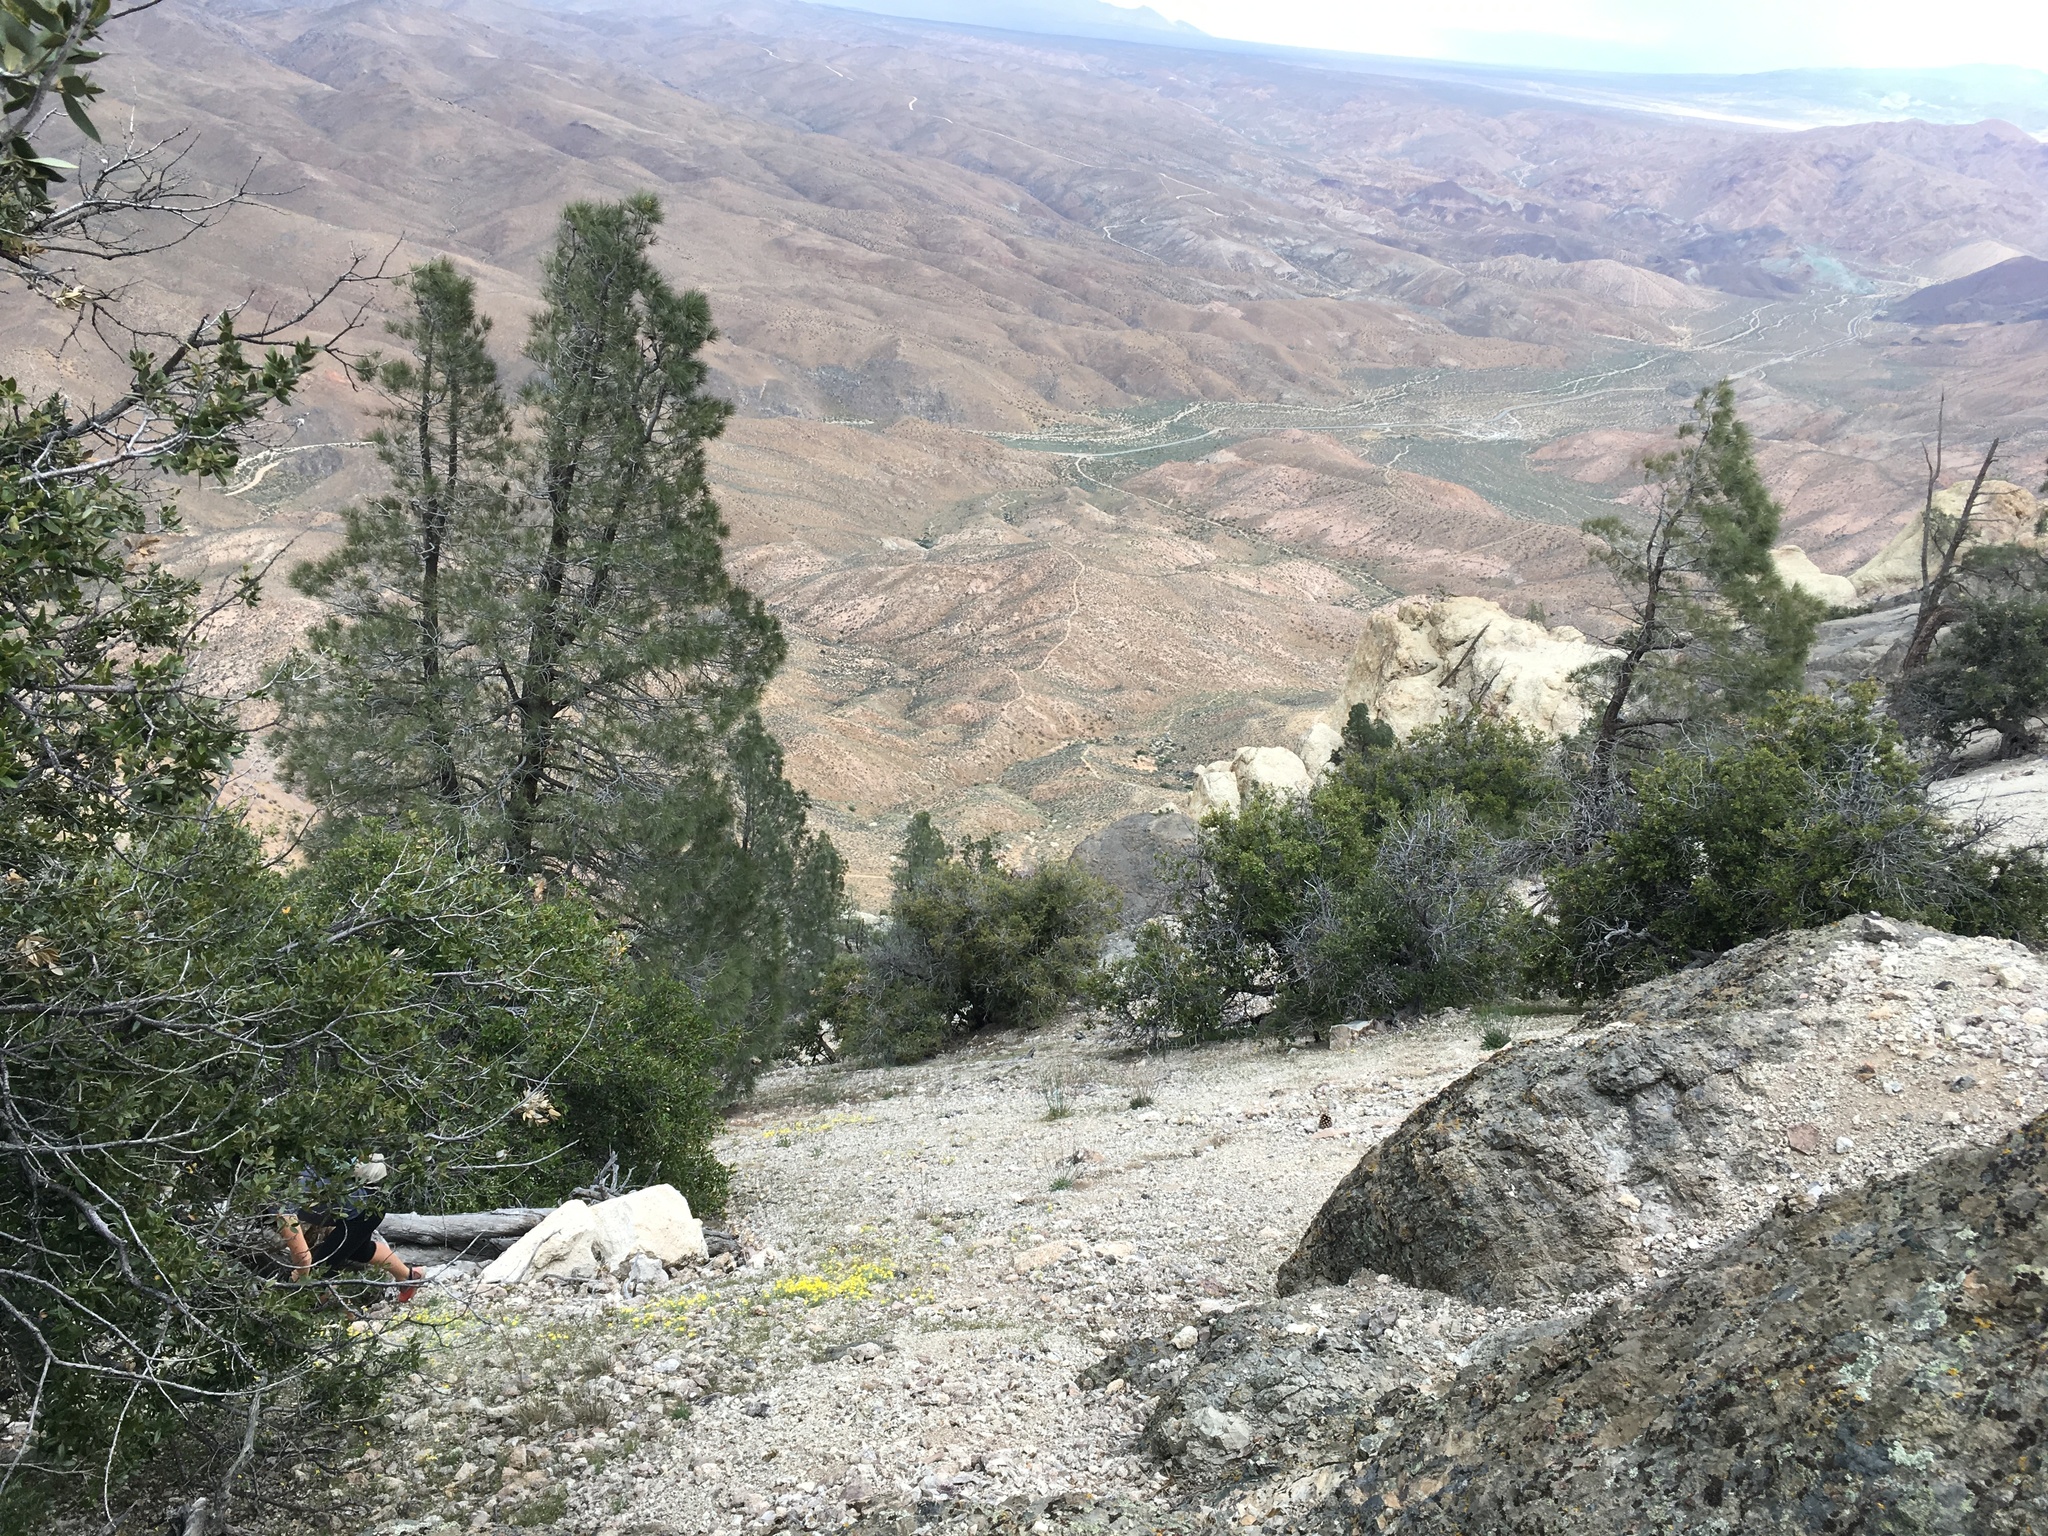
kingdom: Plantae
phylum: Tracheophyta
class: Pinopsida
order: Pinales
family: Pinaceae
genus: Pinus
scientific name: Pinus sabiniana
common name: Bull pine
